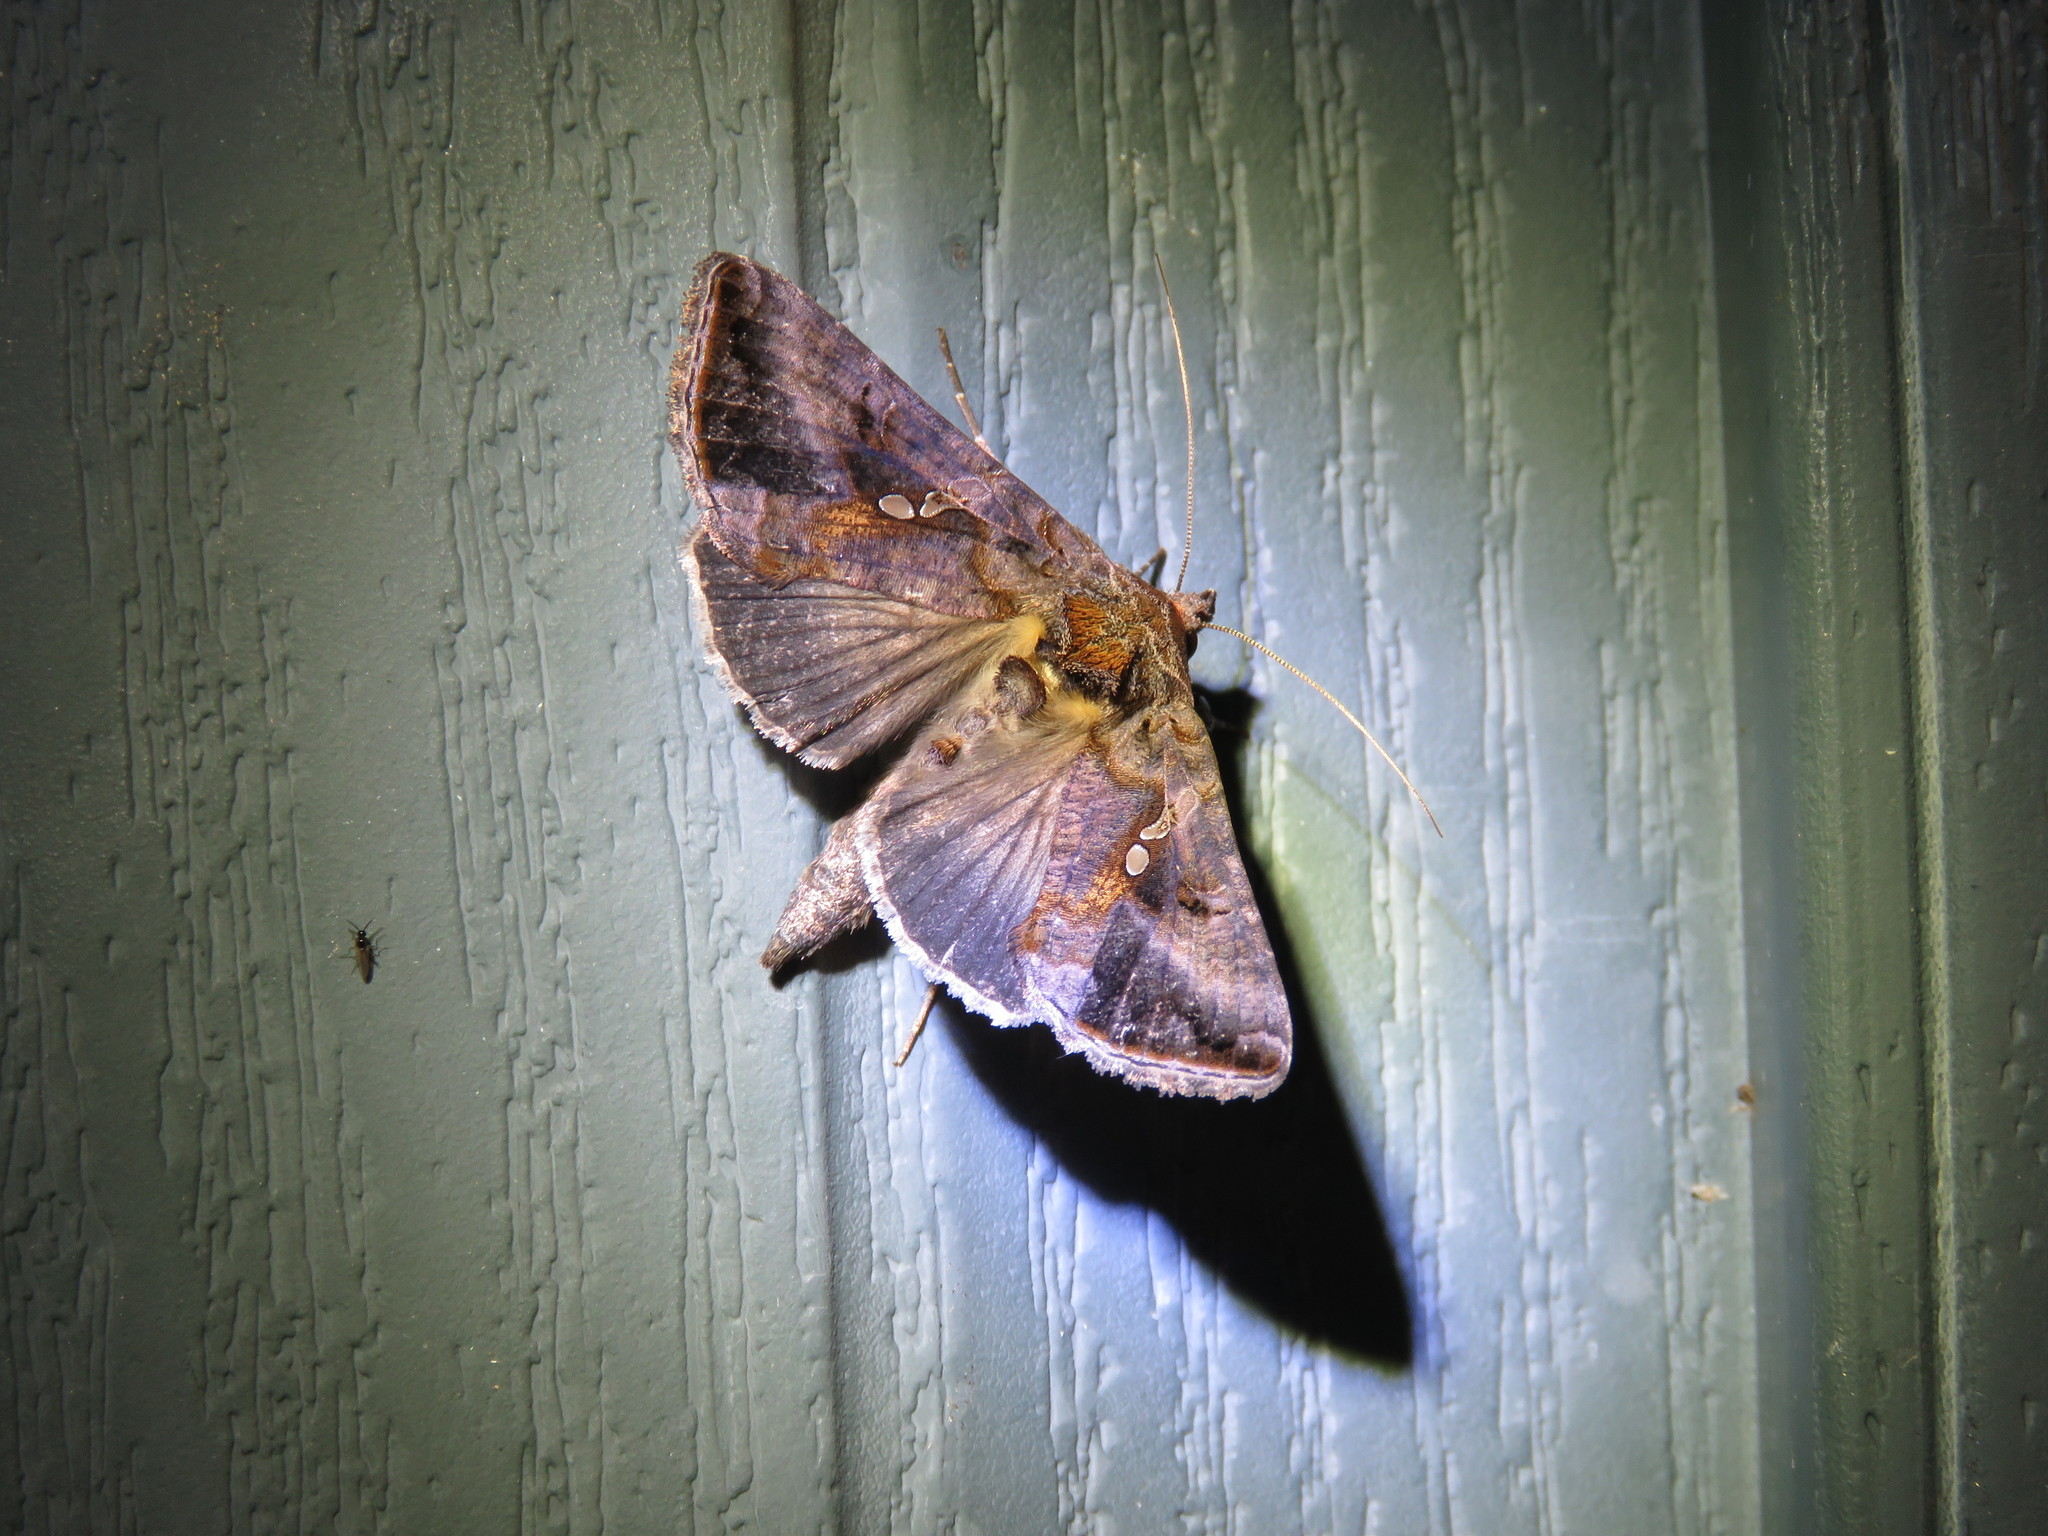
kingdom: Animalia
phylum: Arthropoda
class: Insecta
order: Lepidoptera
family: Noctuidae
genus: Autographa
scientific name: Autographa precationis
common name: Common looper moth
